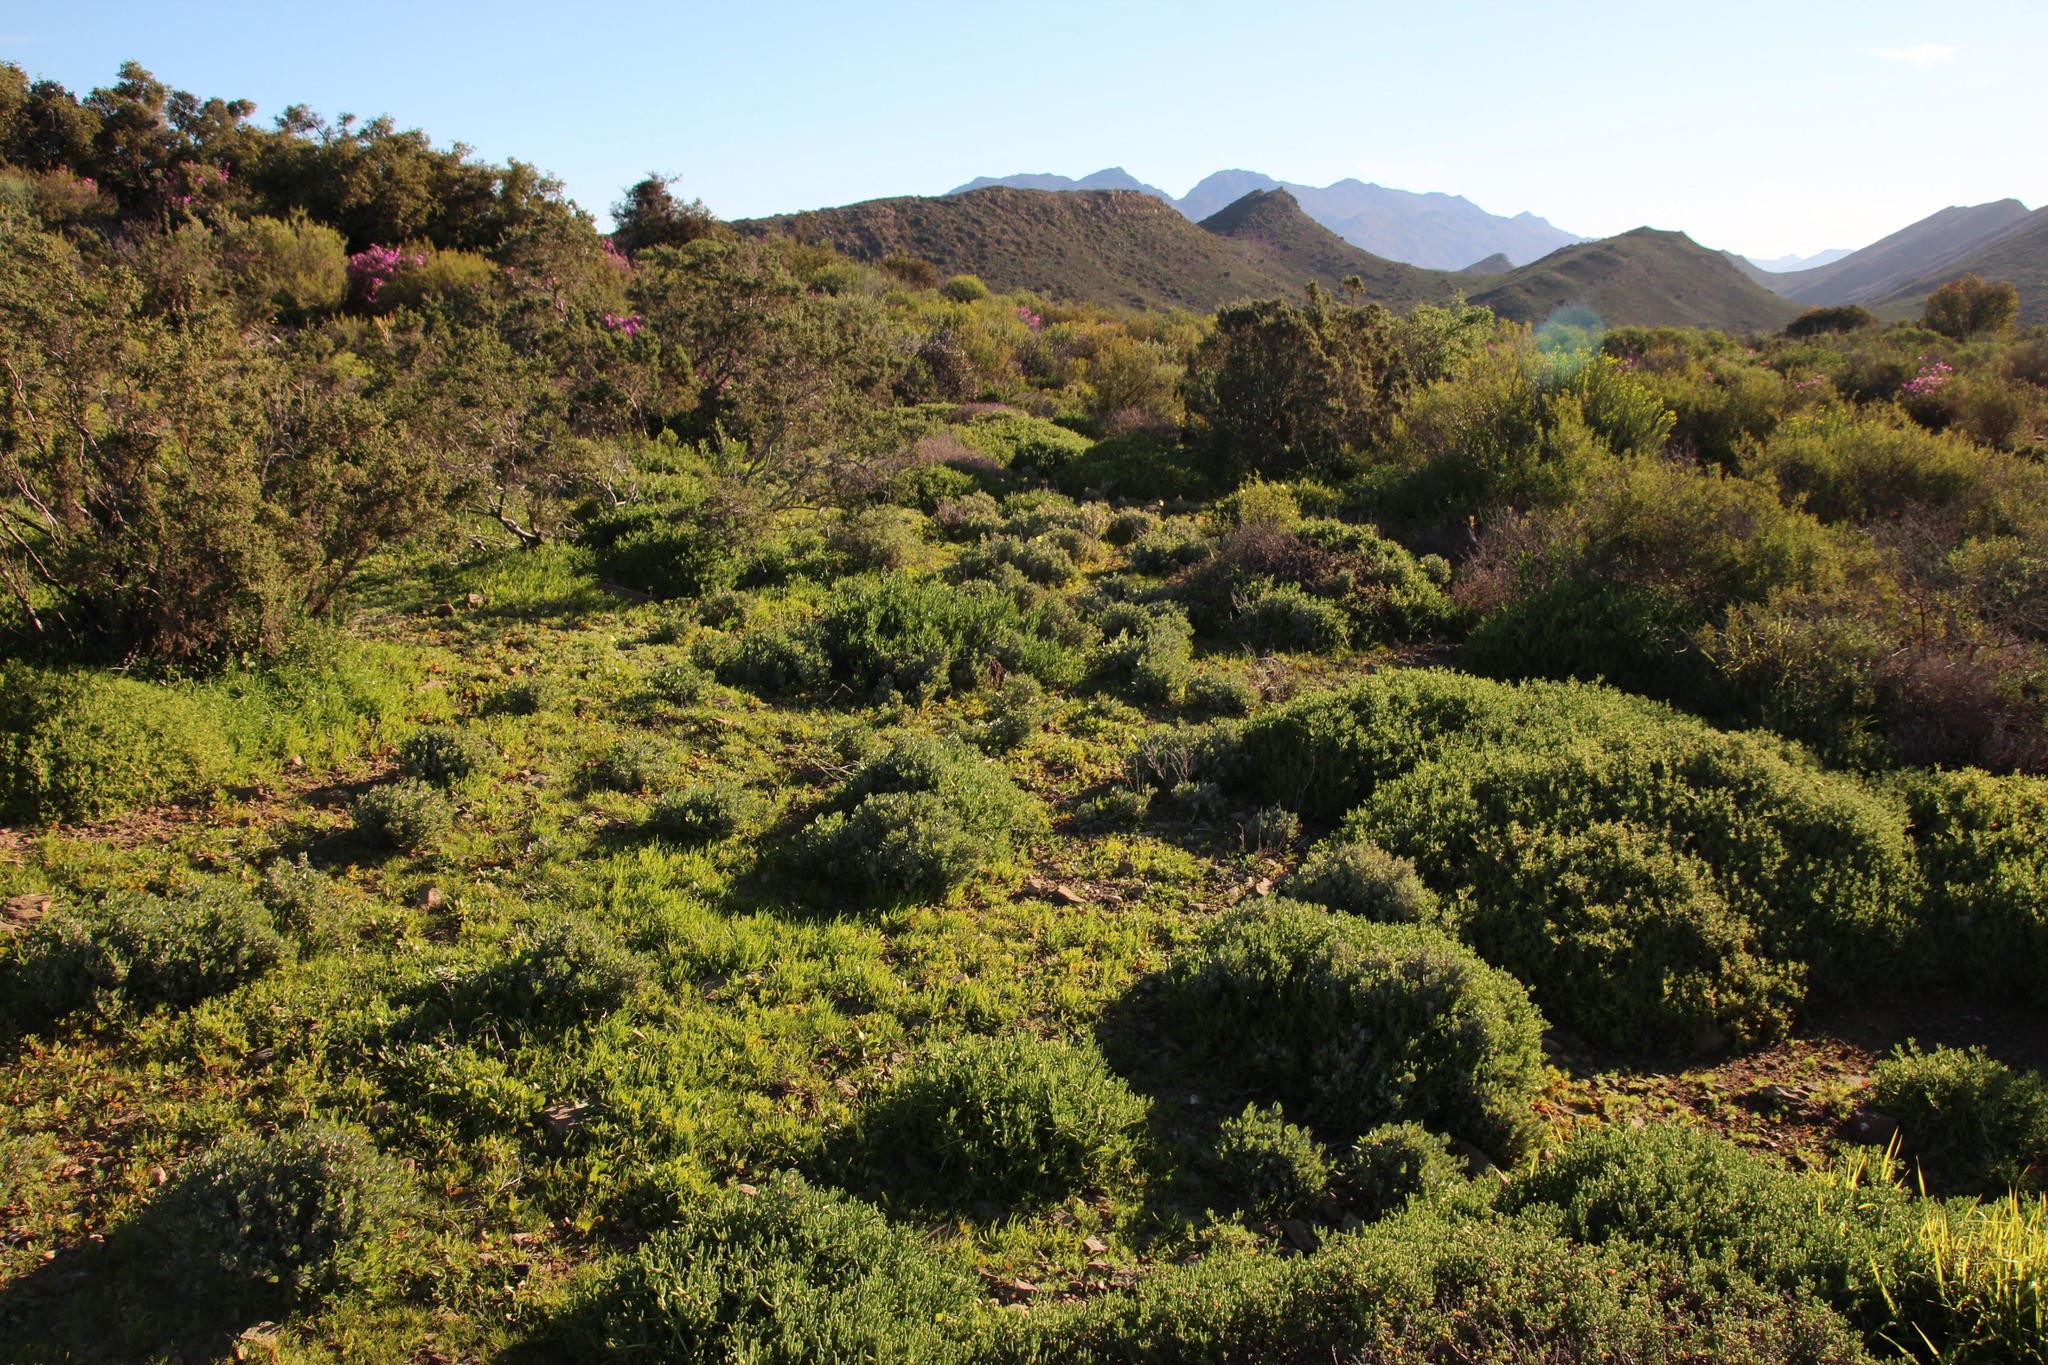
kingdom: Plantae
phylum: Tracheophyta
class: Magnoliopsida
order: Caryophyllales
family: Amaranthaceae
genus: Atriplex
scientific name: Atriplex lindleyi
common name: Lindley's saltbush
